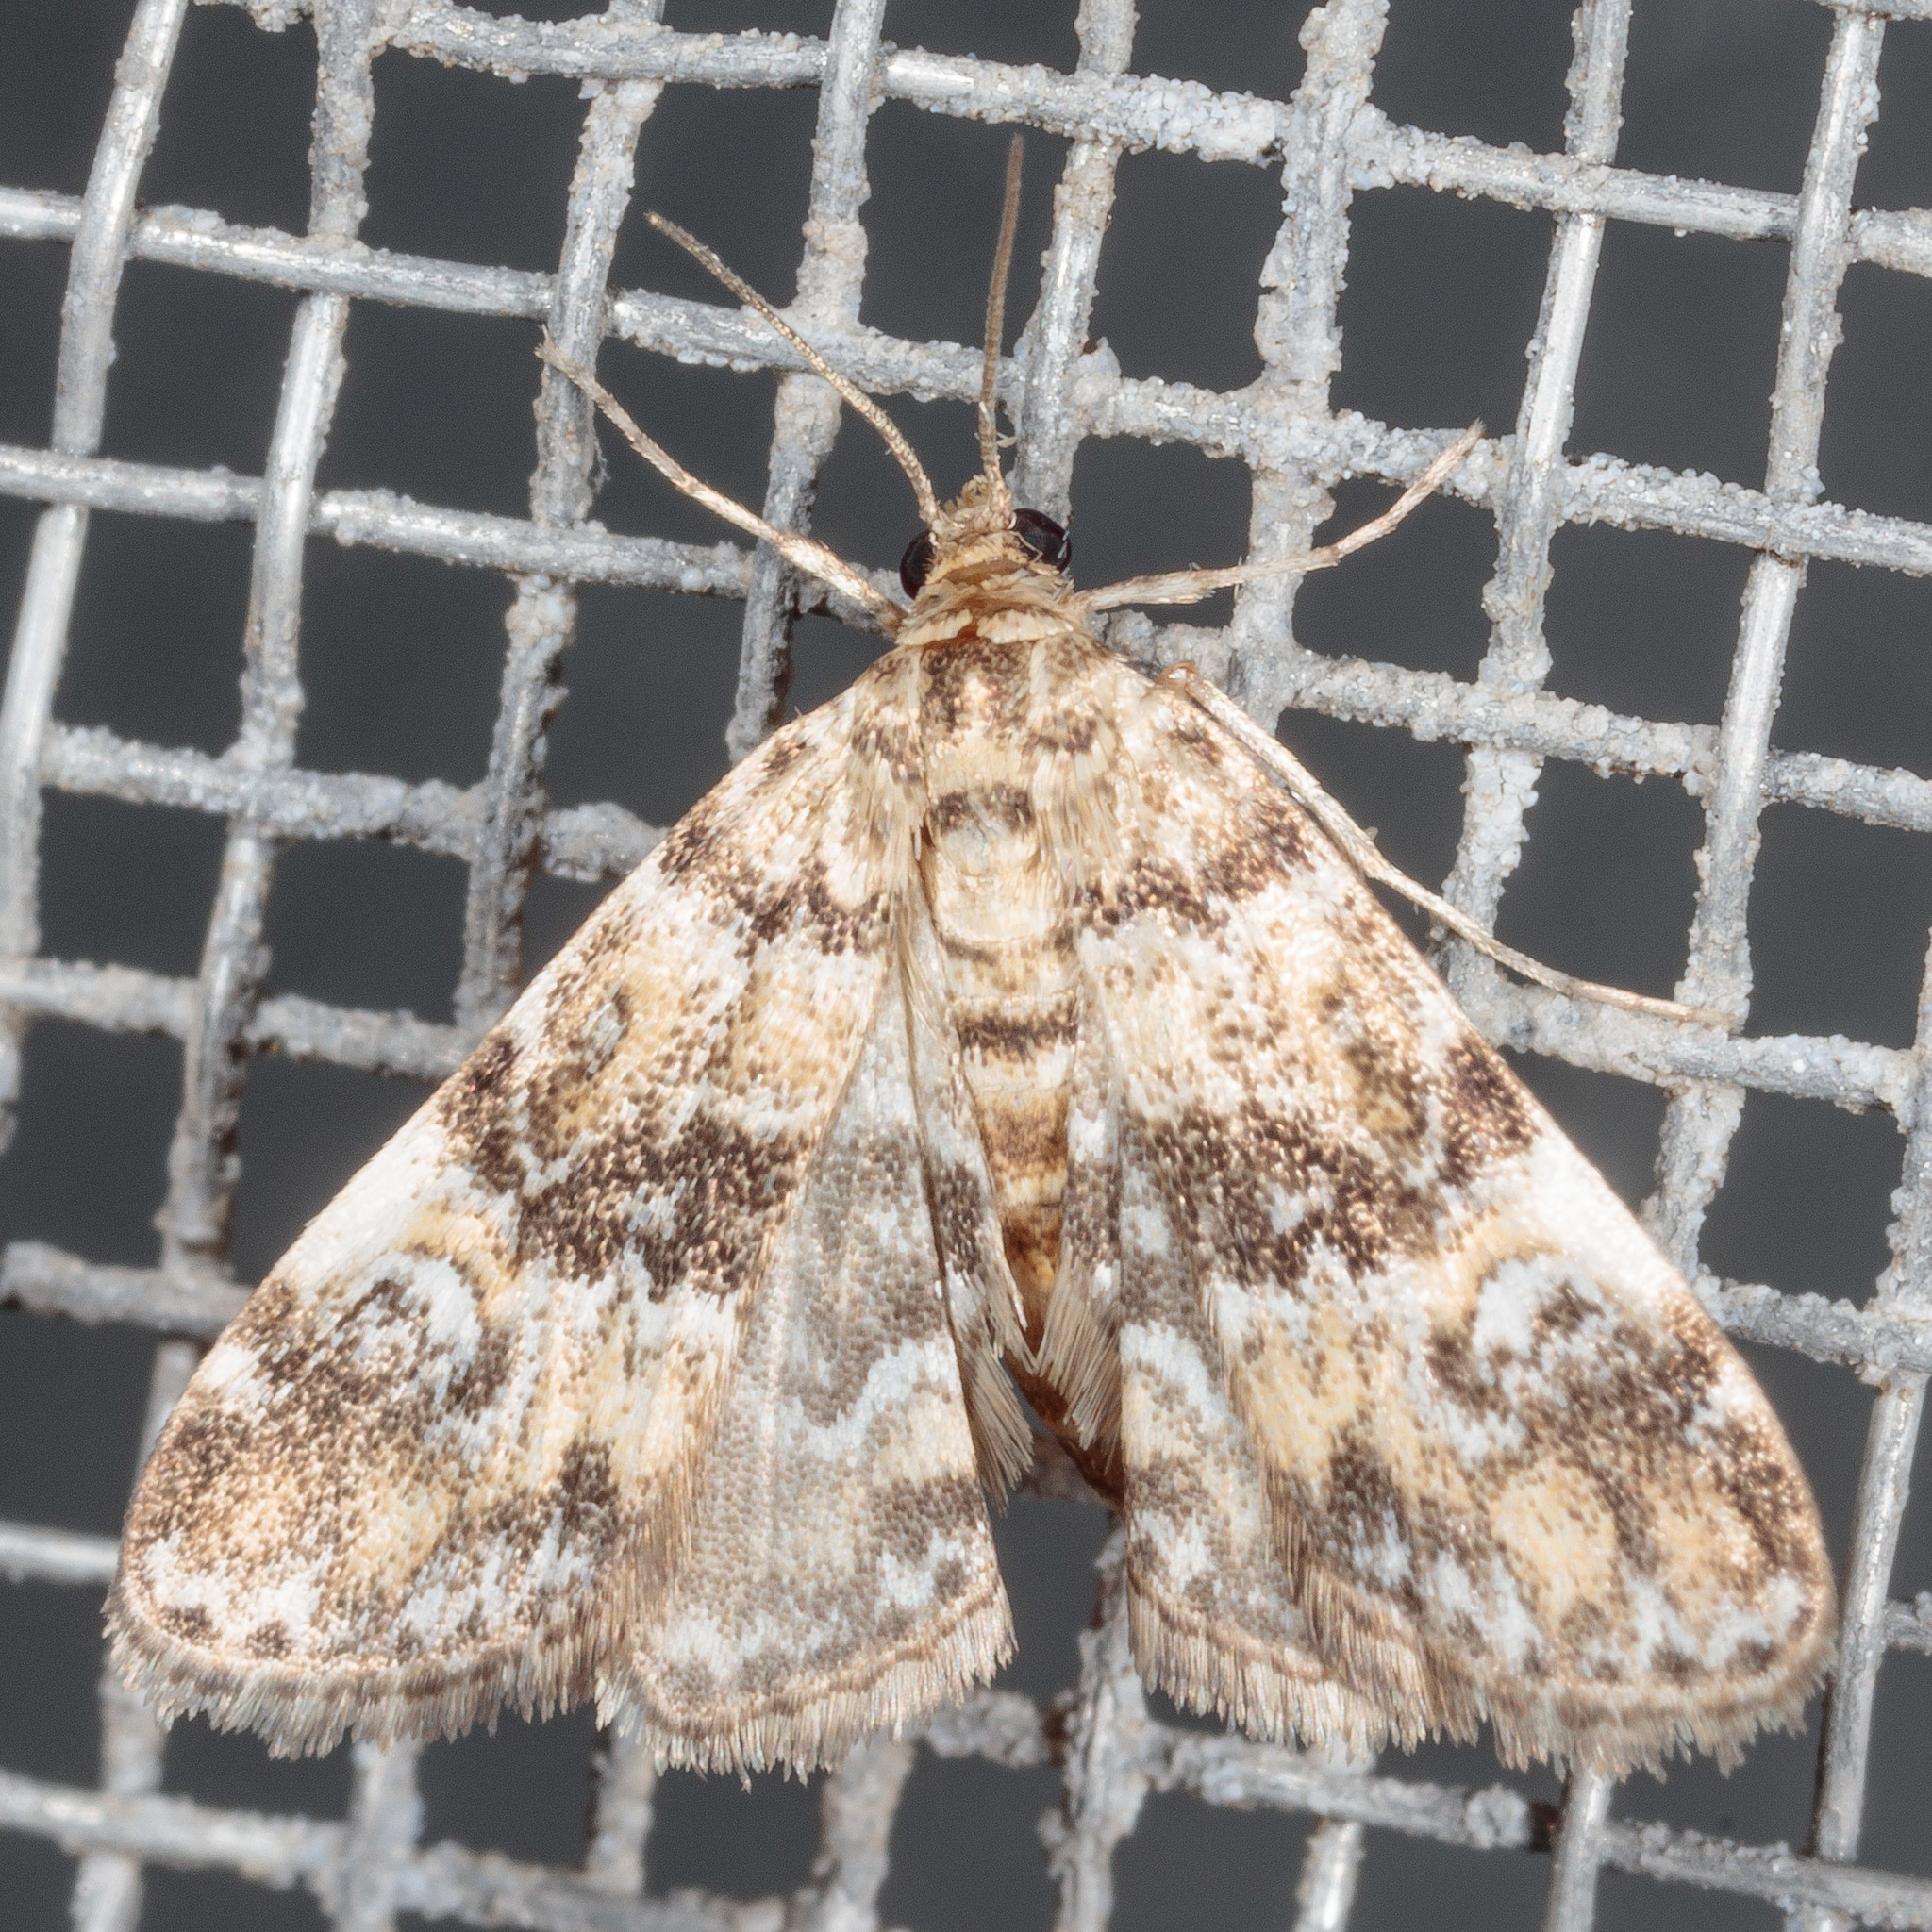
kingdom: Animalia
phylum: Arthropoda
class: Insecta
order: Lepidoptera
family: Crambidae
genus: Elophila
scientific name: Elophila obliteralis
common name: Waterlily leafcutter moth
